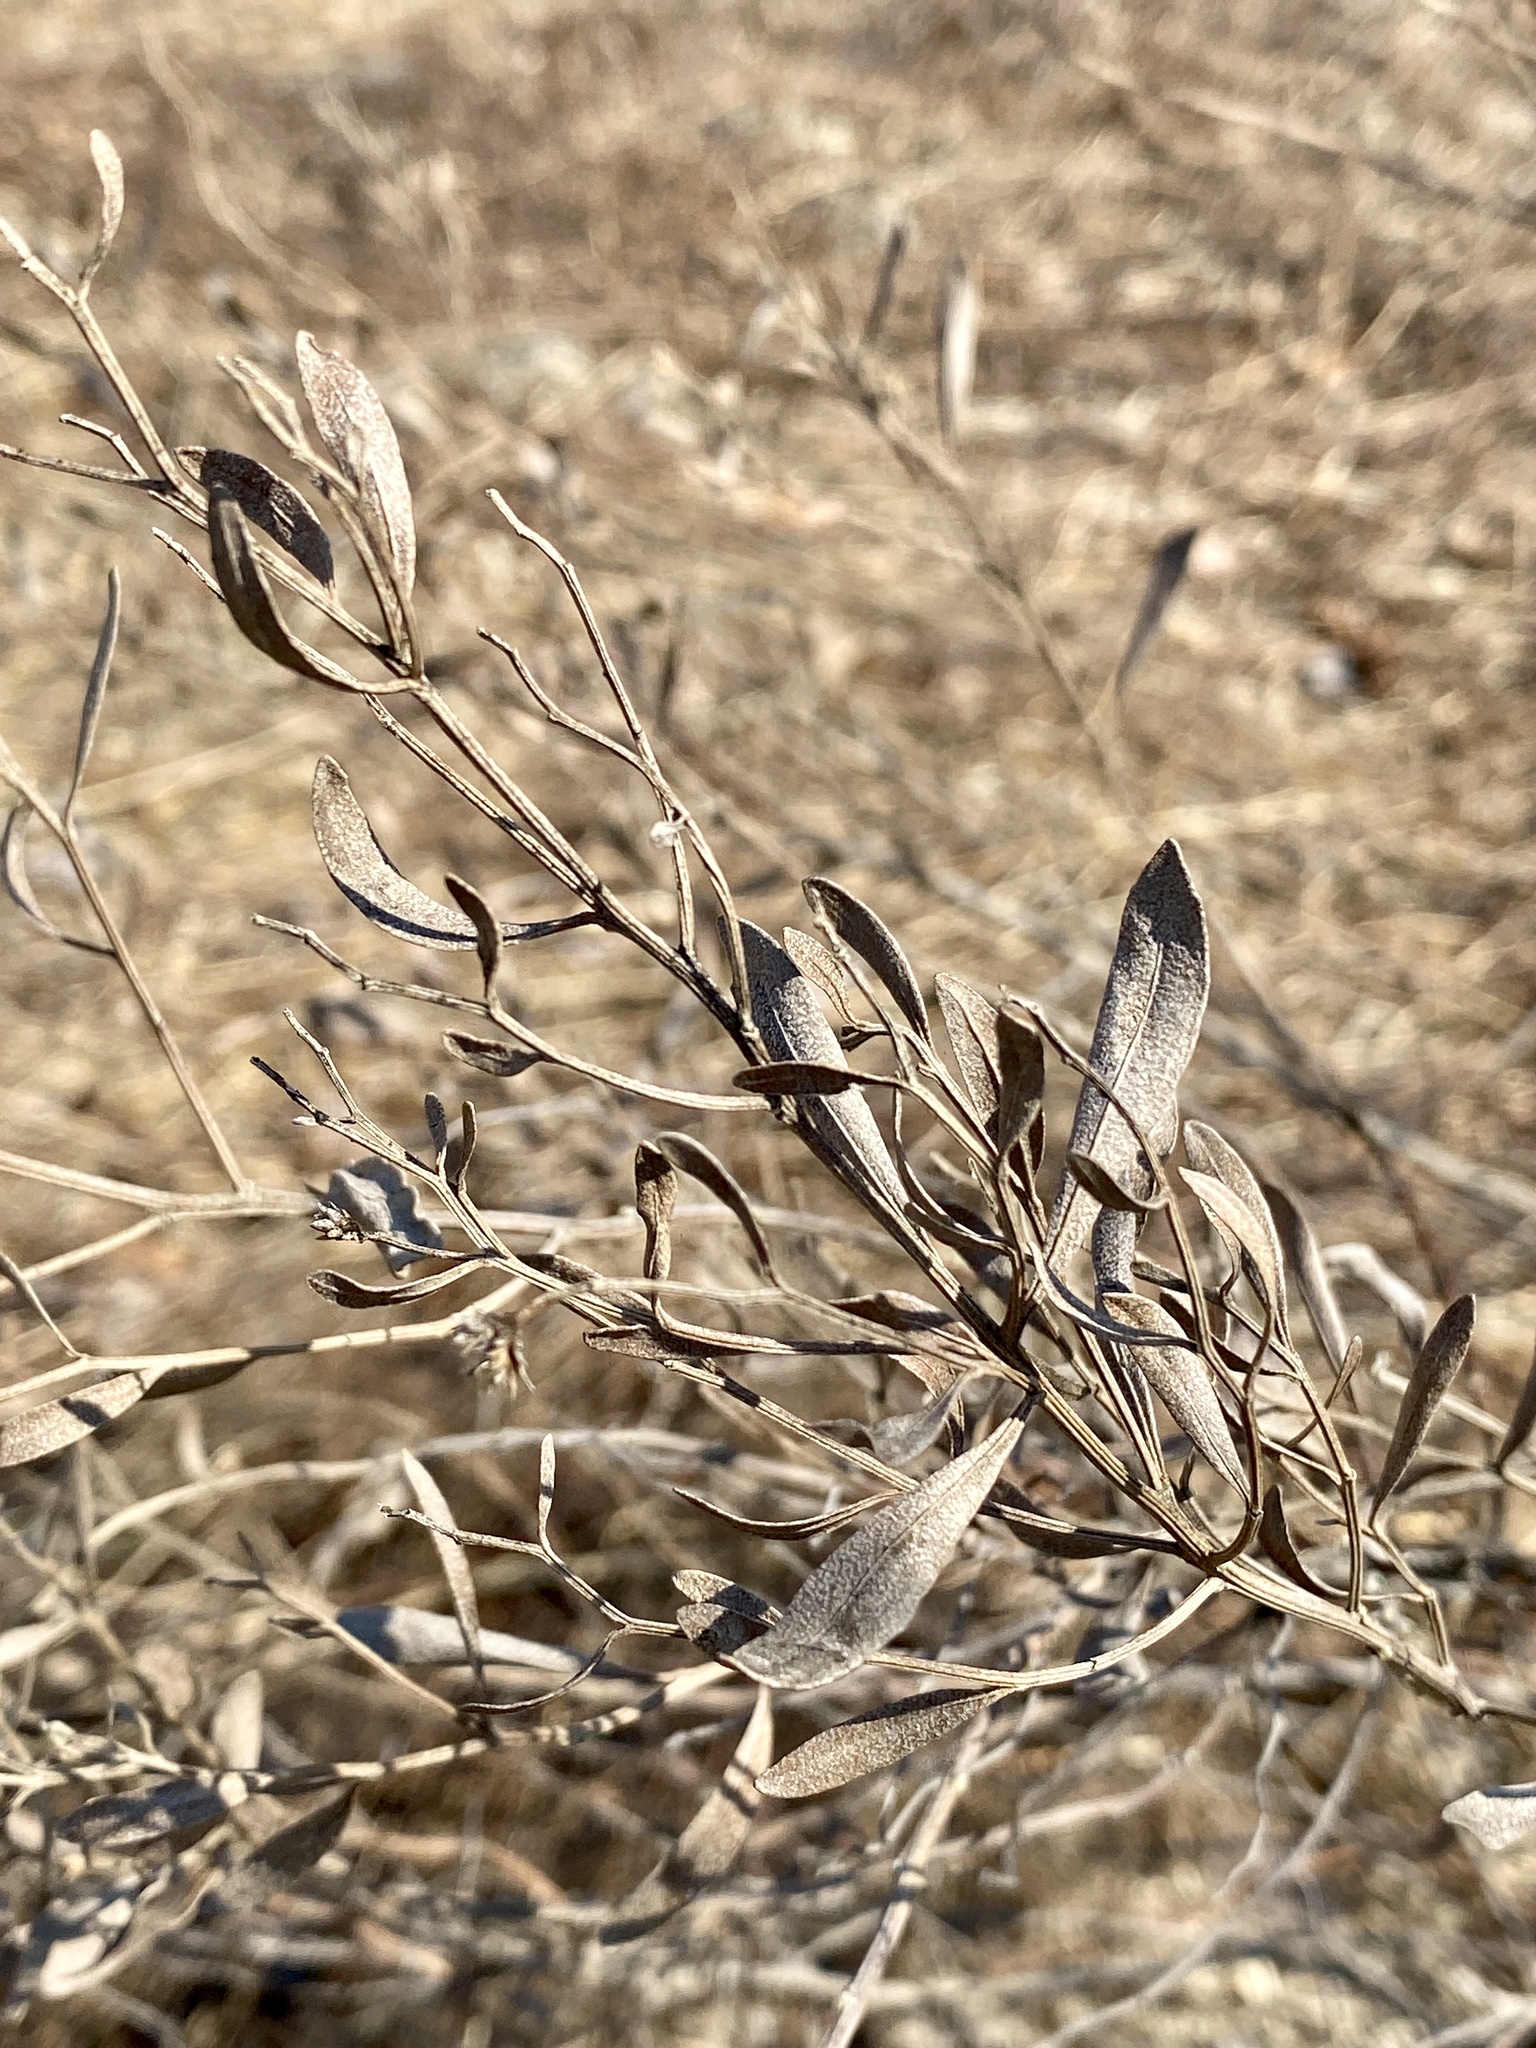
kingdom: Plantae
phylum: Tracheophyta
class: Magnoliopsida
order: Asterales
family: Asteraceae
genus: Baccharis
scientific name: Baccharis halimifolia
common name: Eastern baccharis
